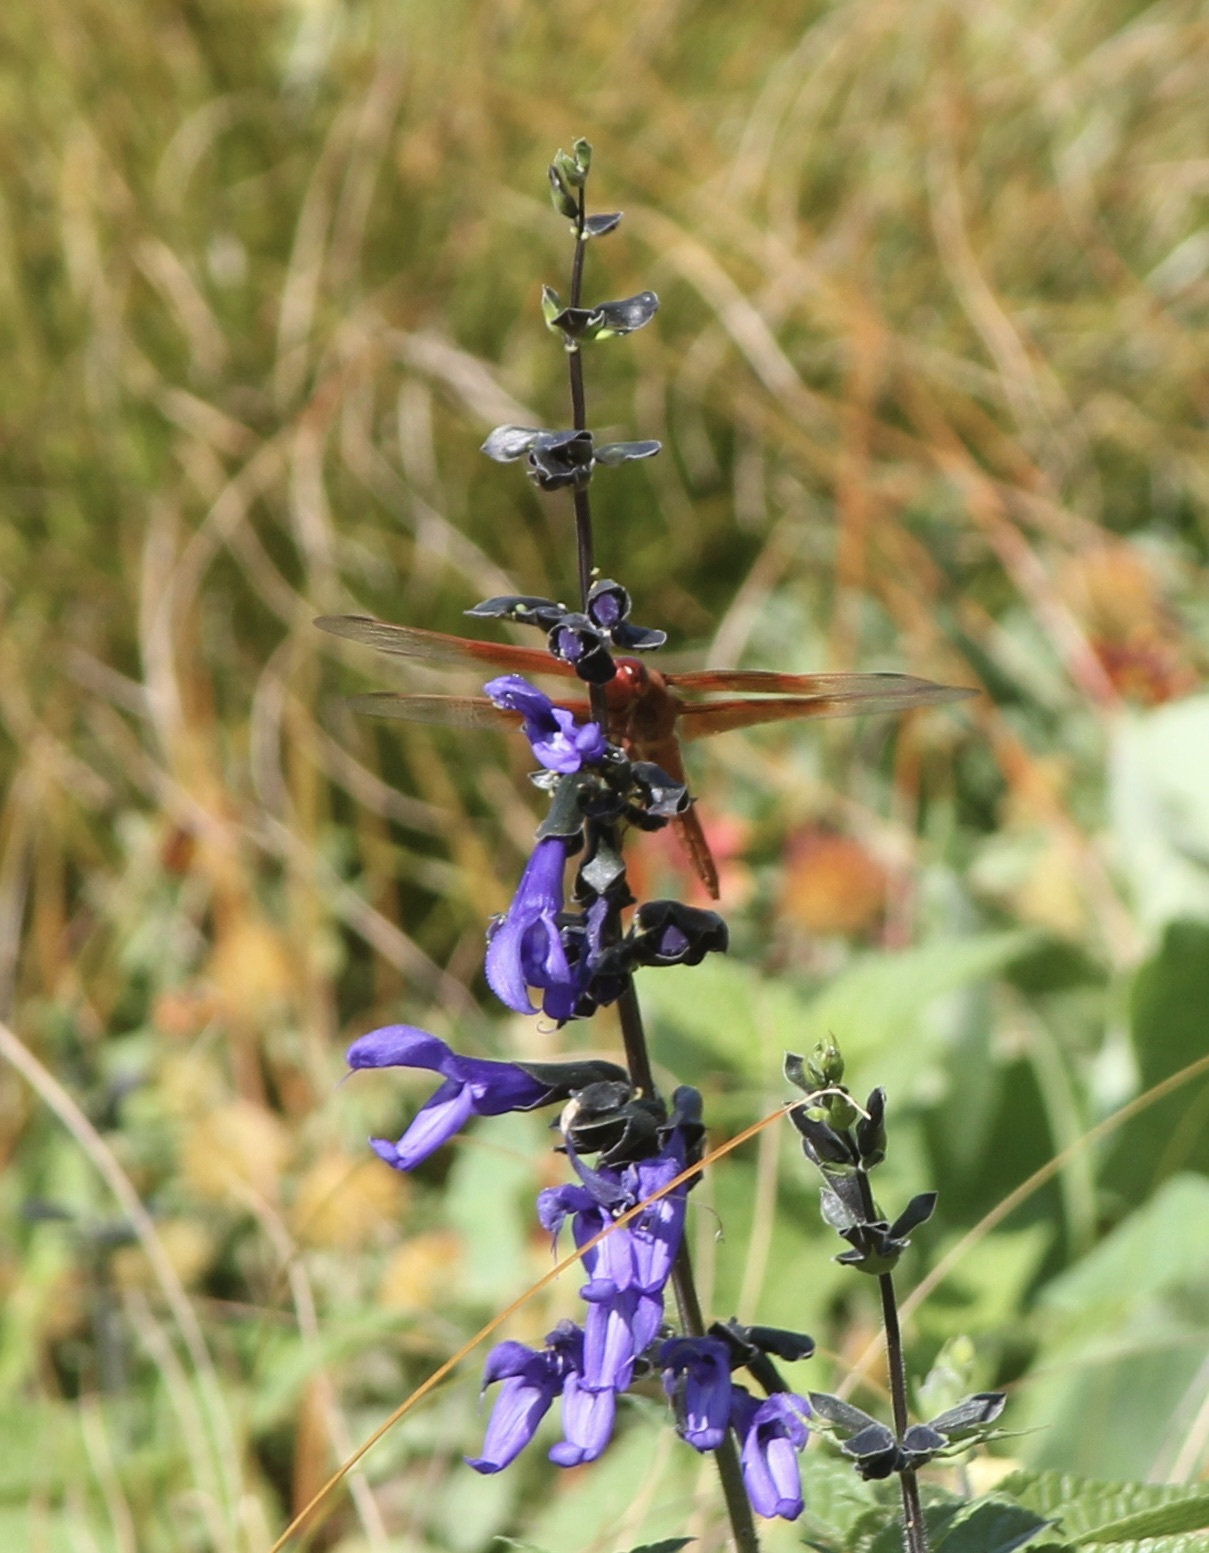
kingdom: Animalia
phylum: Arthropoda
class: Insecta
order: Odonata
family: Libellulidae
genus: Libellula
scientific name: Libellula saturata
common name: Flame skimmer
